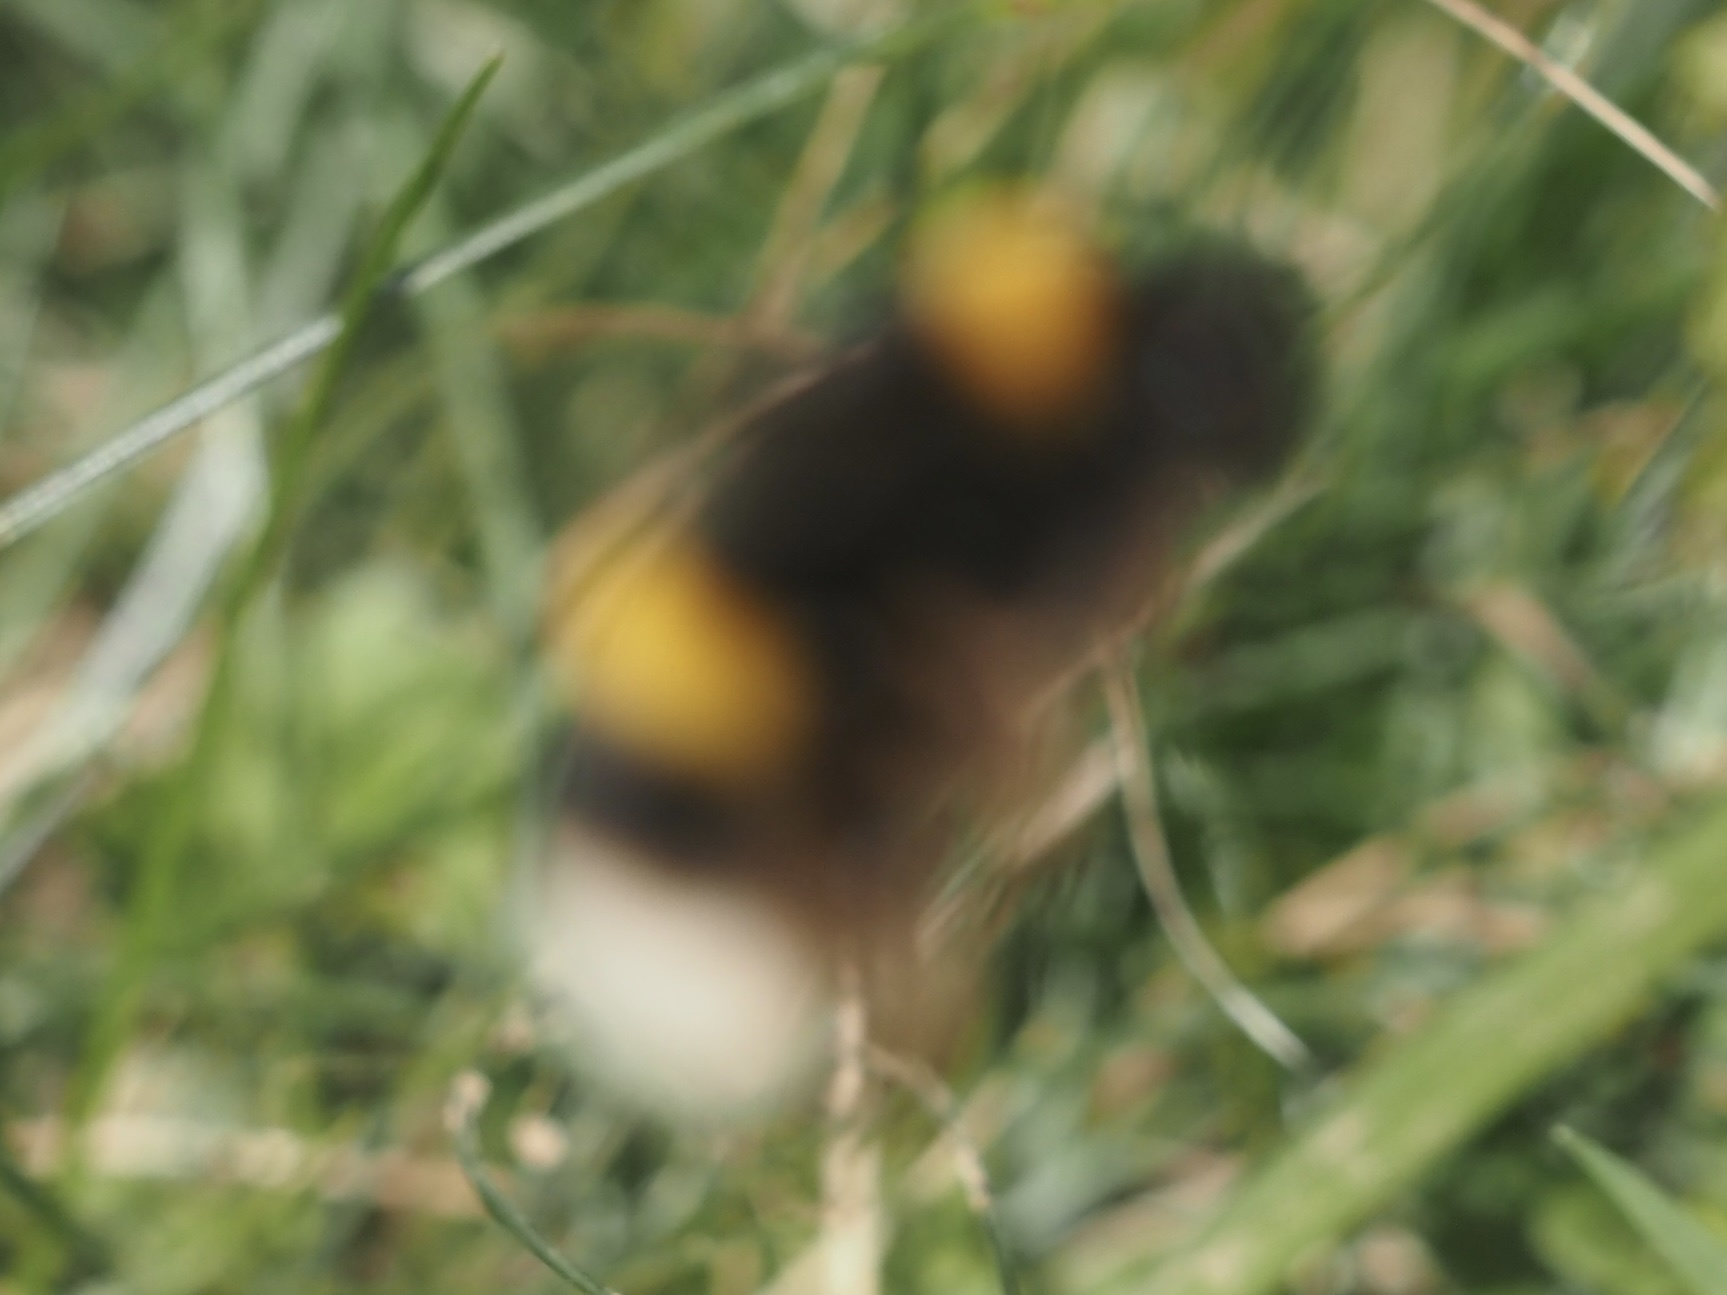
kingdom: Animalia
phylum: Arthropoda
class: Insecta
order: Hymenoptera
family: Apidae
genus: Bombus
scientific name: Bombus terrestris
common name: Buff-tailed bumblebee
